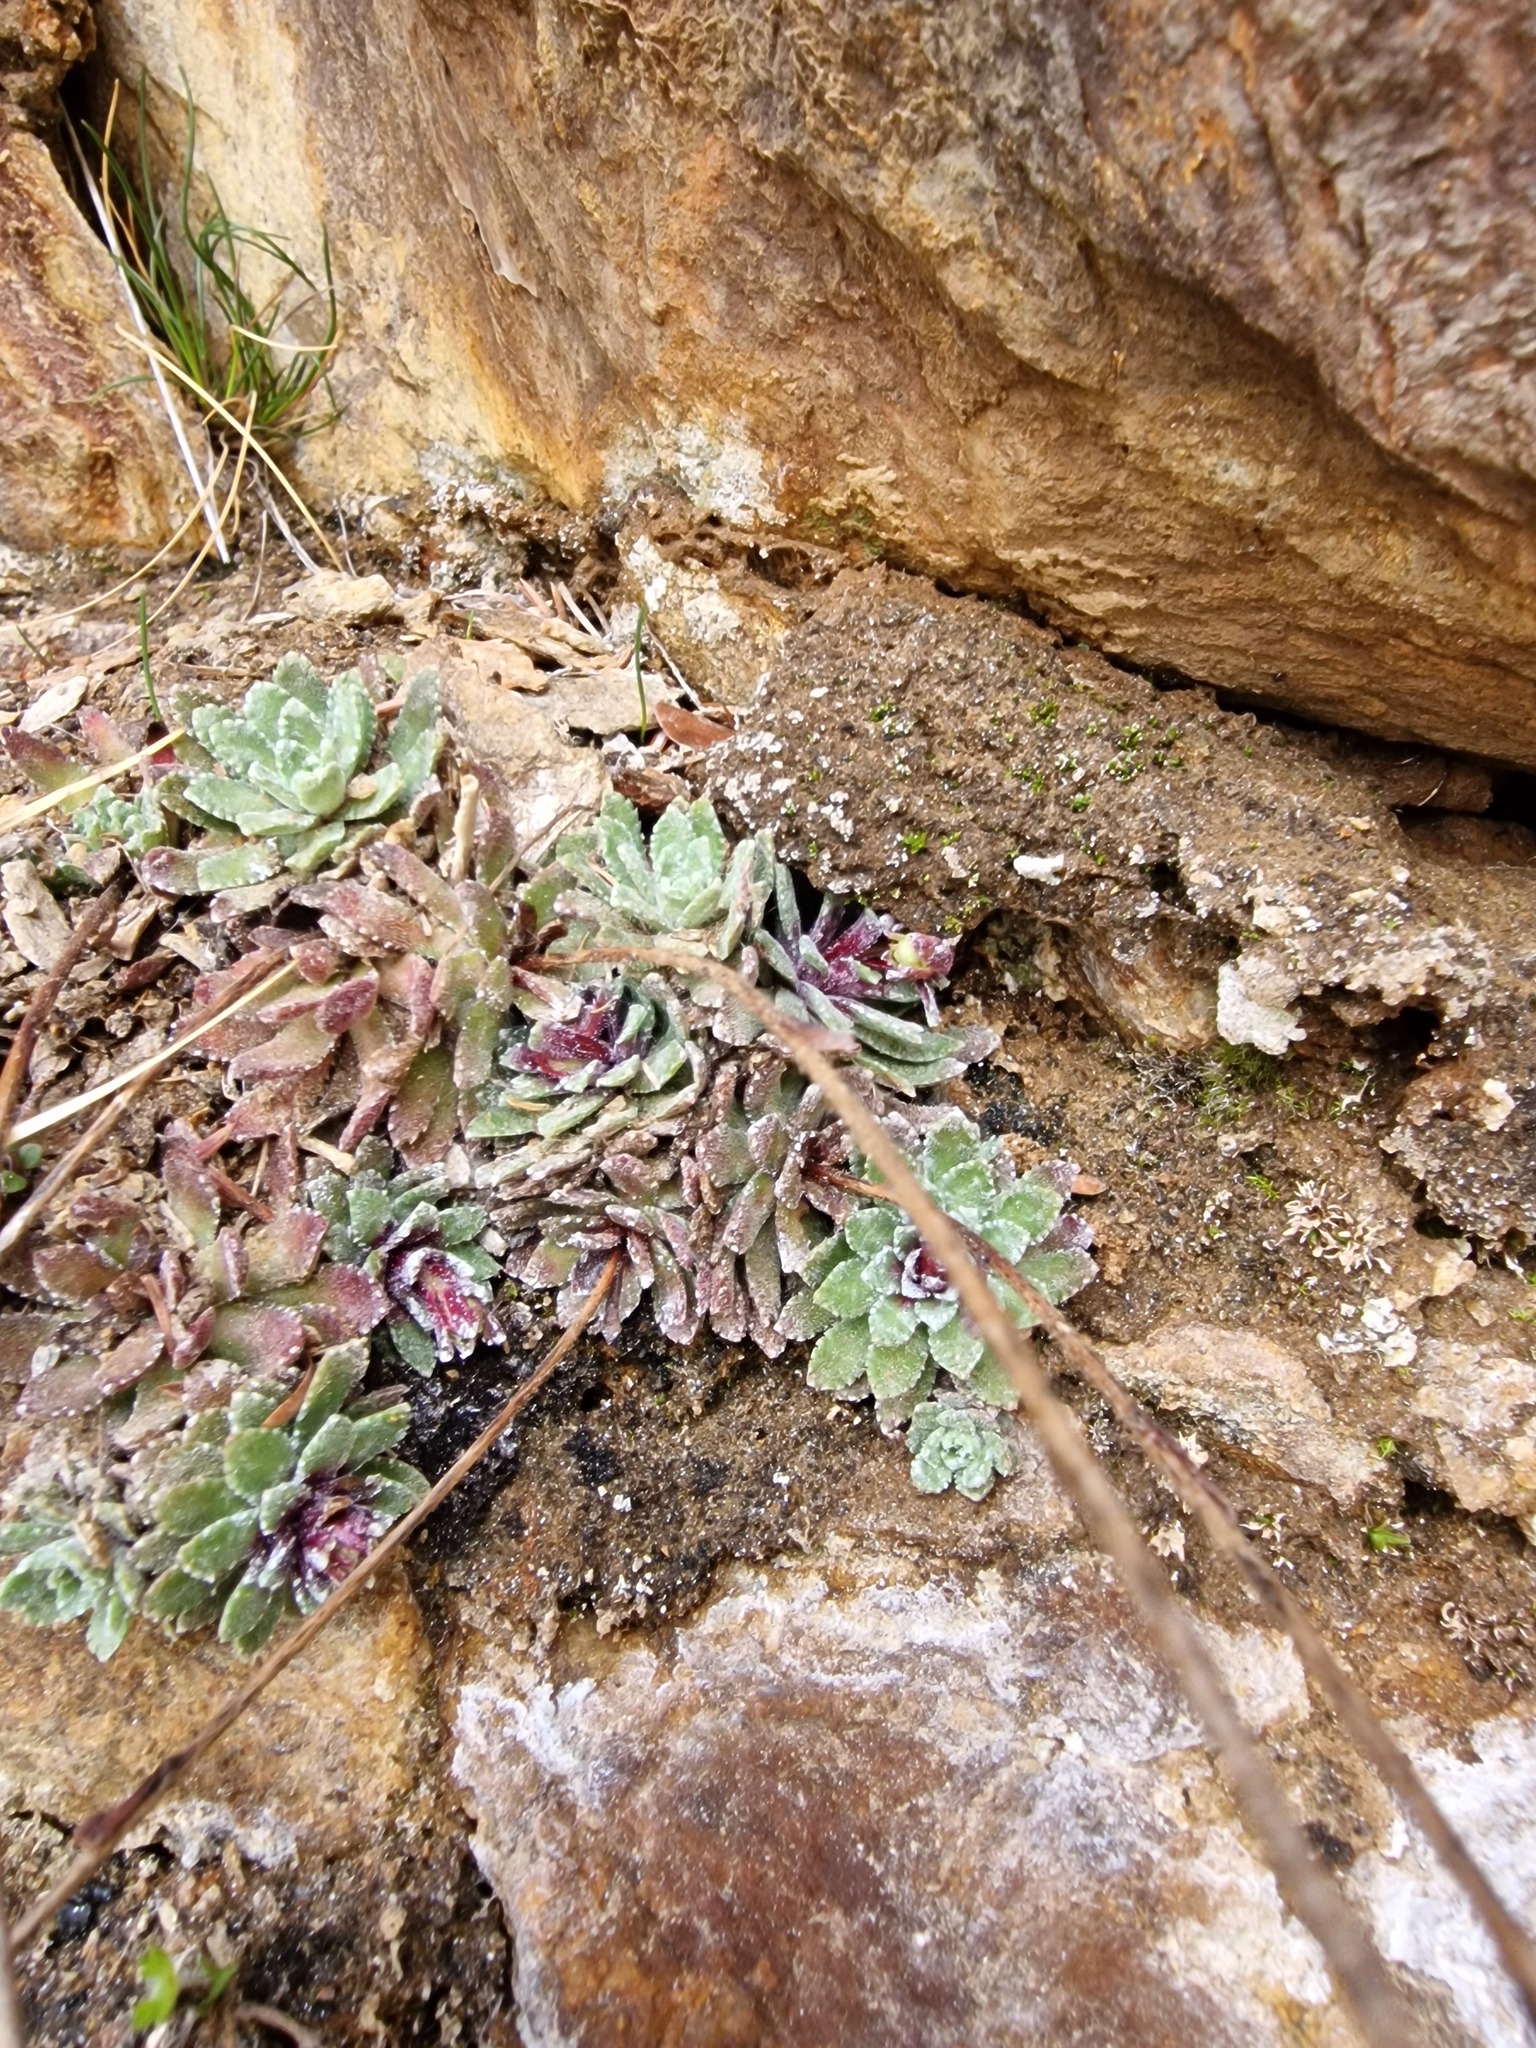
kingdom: Plantae
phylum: Tracheophyta
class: Magnoliopsida
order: Saxifragales
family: Saxifragaceae
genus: Saxifraga
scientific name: Saxifraga paniculata
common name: Livelong saxifrage
